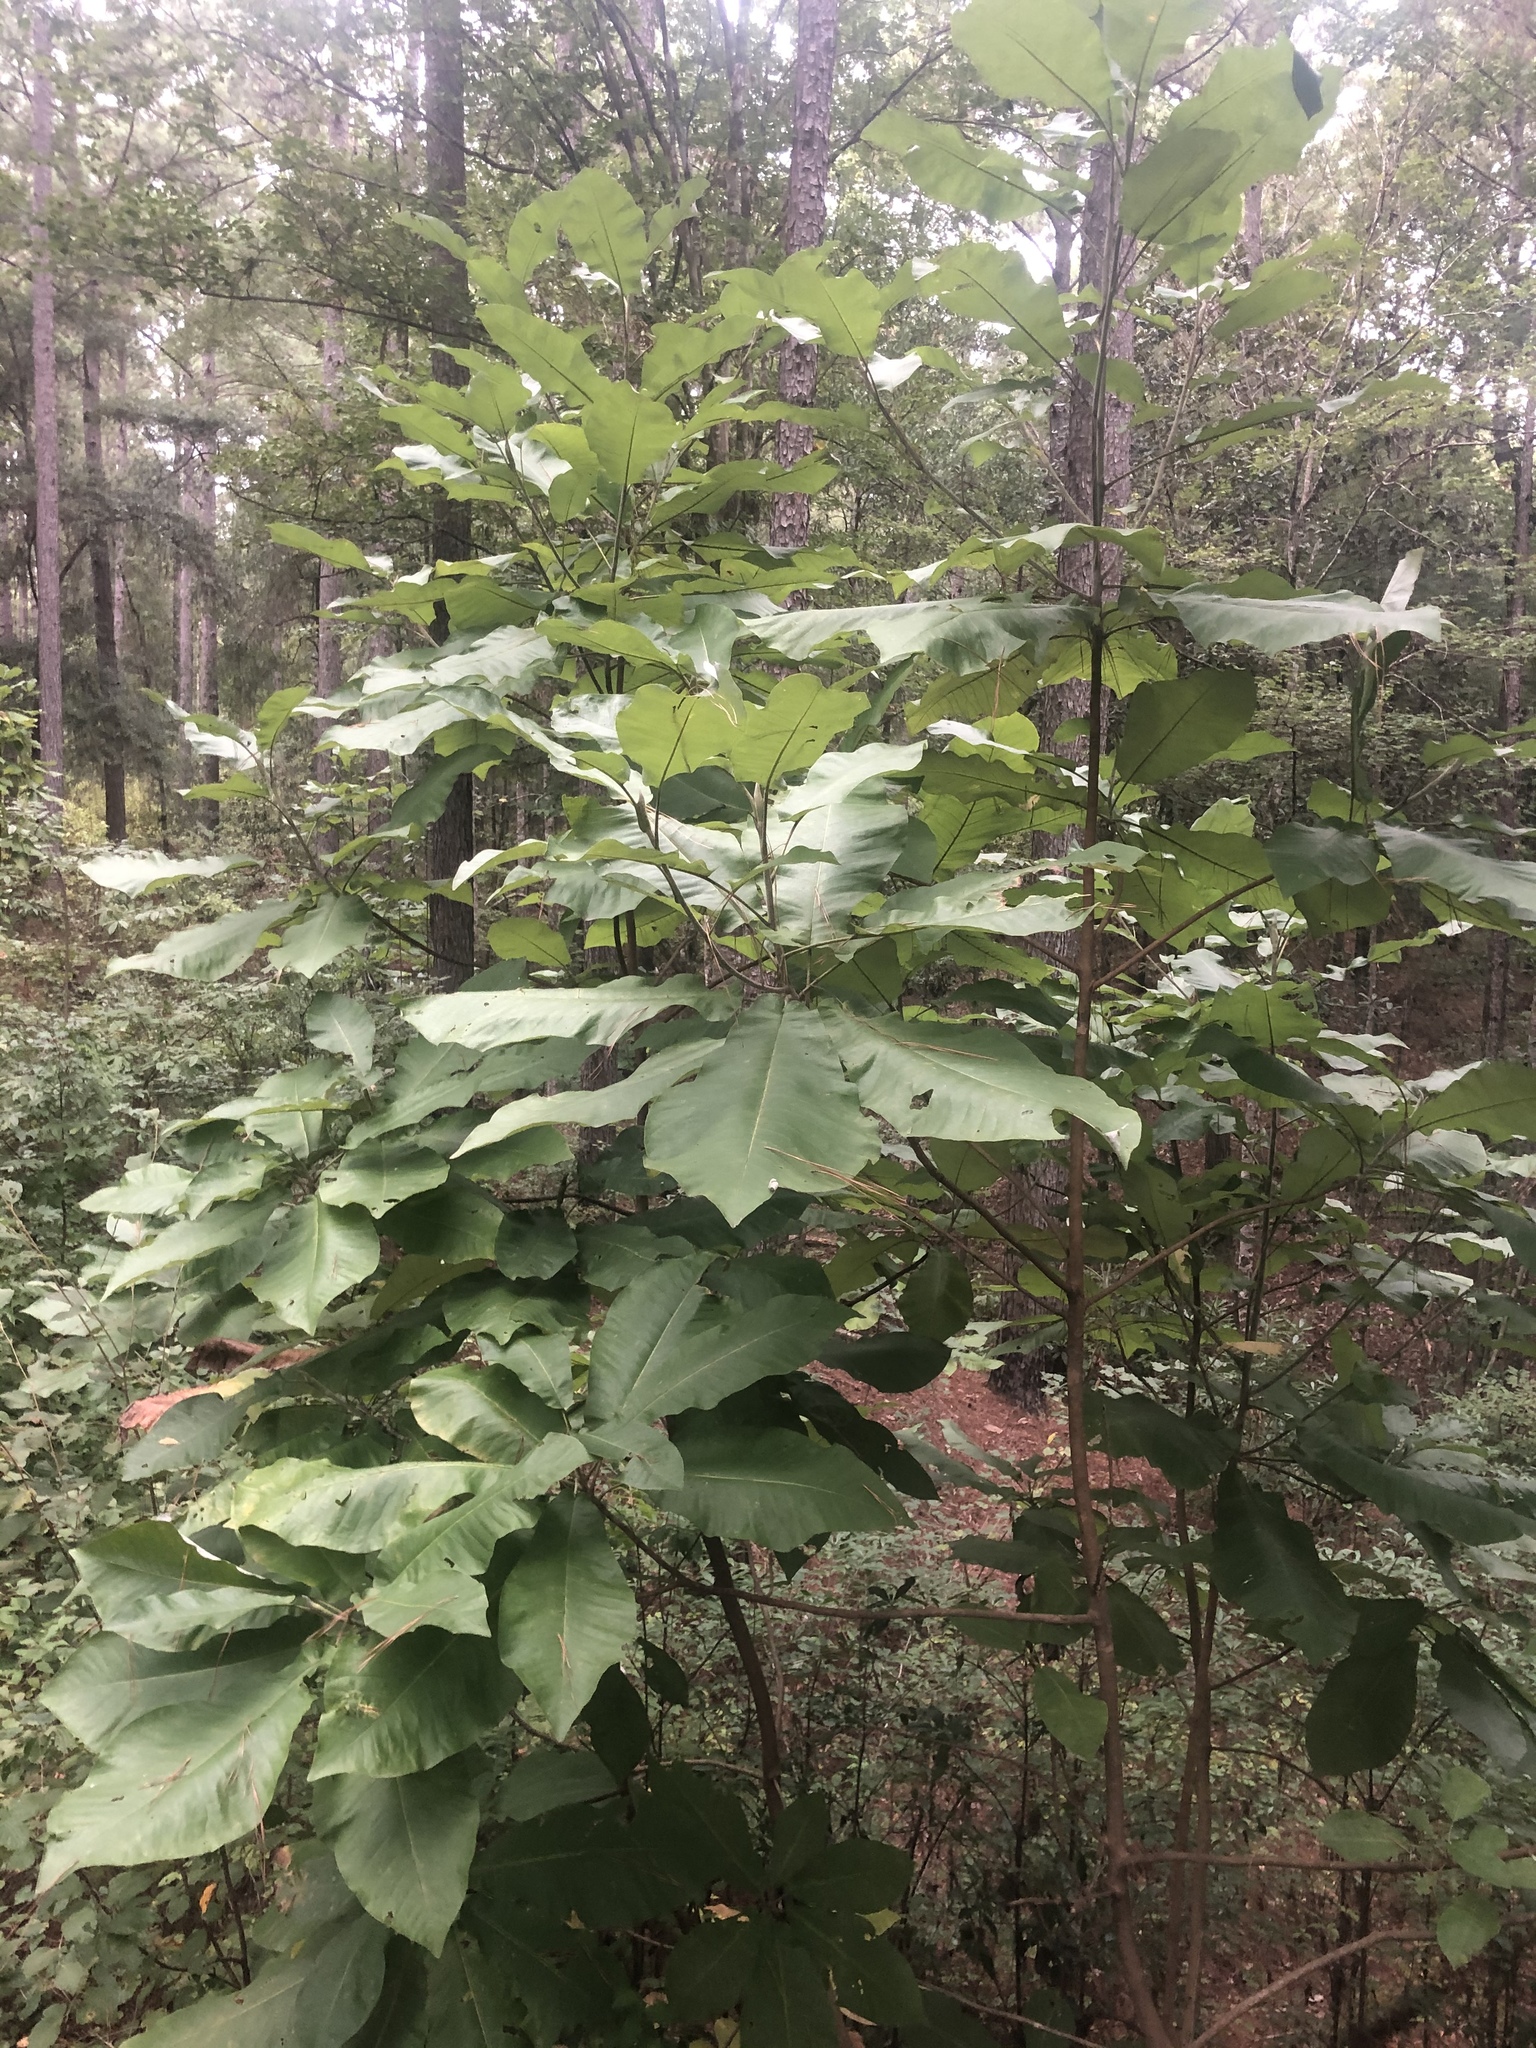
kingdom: Plantae
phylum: Tracheophyta
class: Magnoliopsida
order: Magnoliales
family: Magnoliaceae
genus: Magnolia
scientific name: Magnolia macrophylla
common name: Big-leaf magnolia
